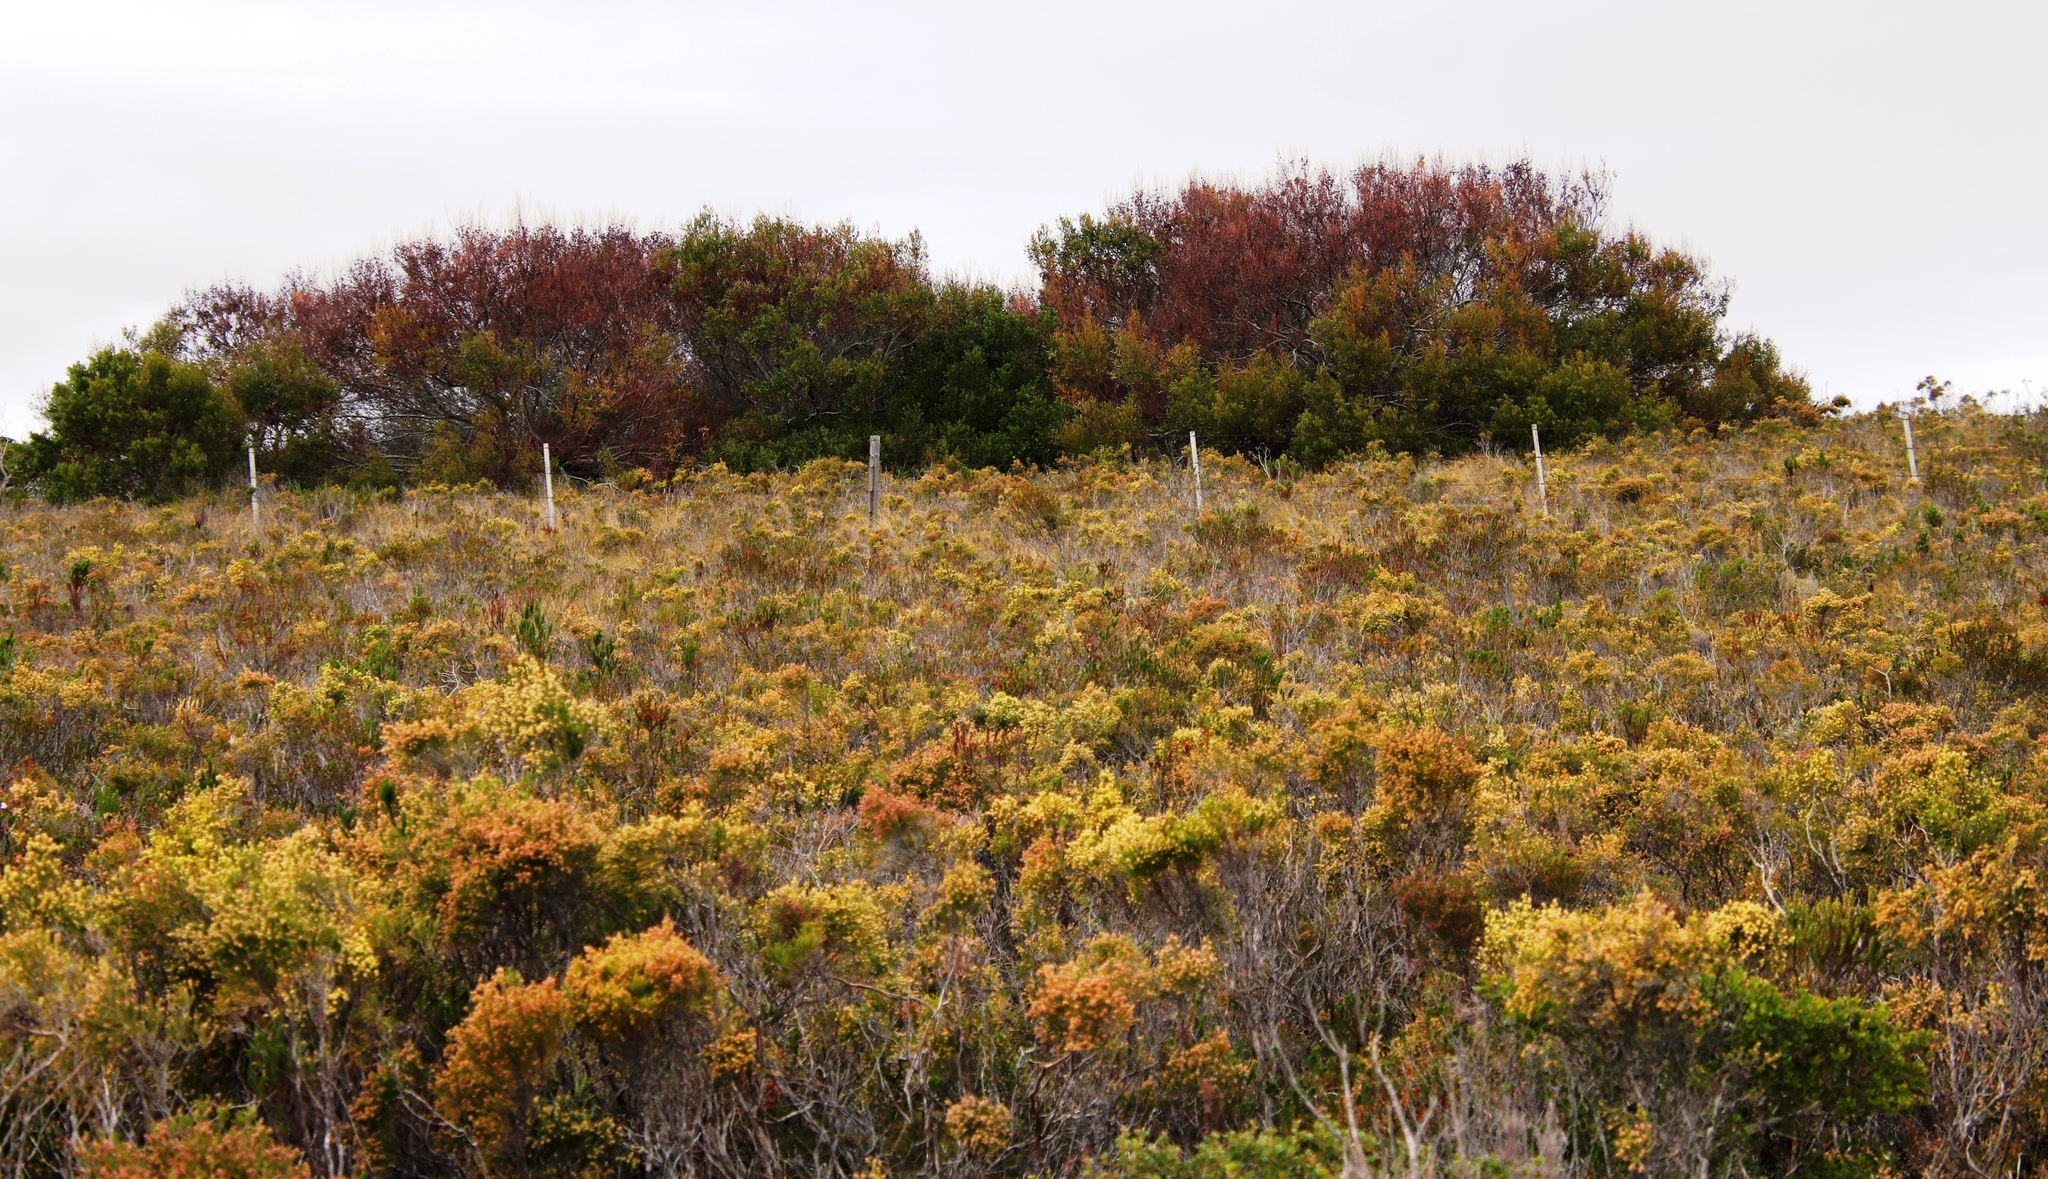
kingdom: Plantae
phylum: Tracheophyta
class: Magnoliopsida
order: Fabales
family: Fabaceae
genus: Acacia
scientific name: Acacia cyclops
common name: Coastal wattle
